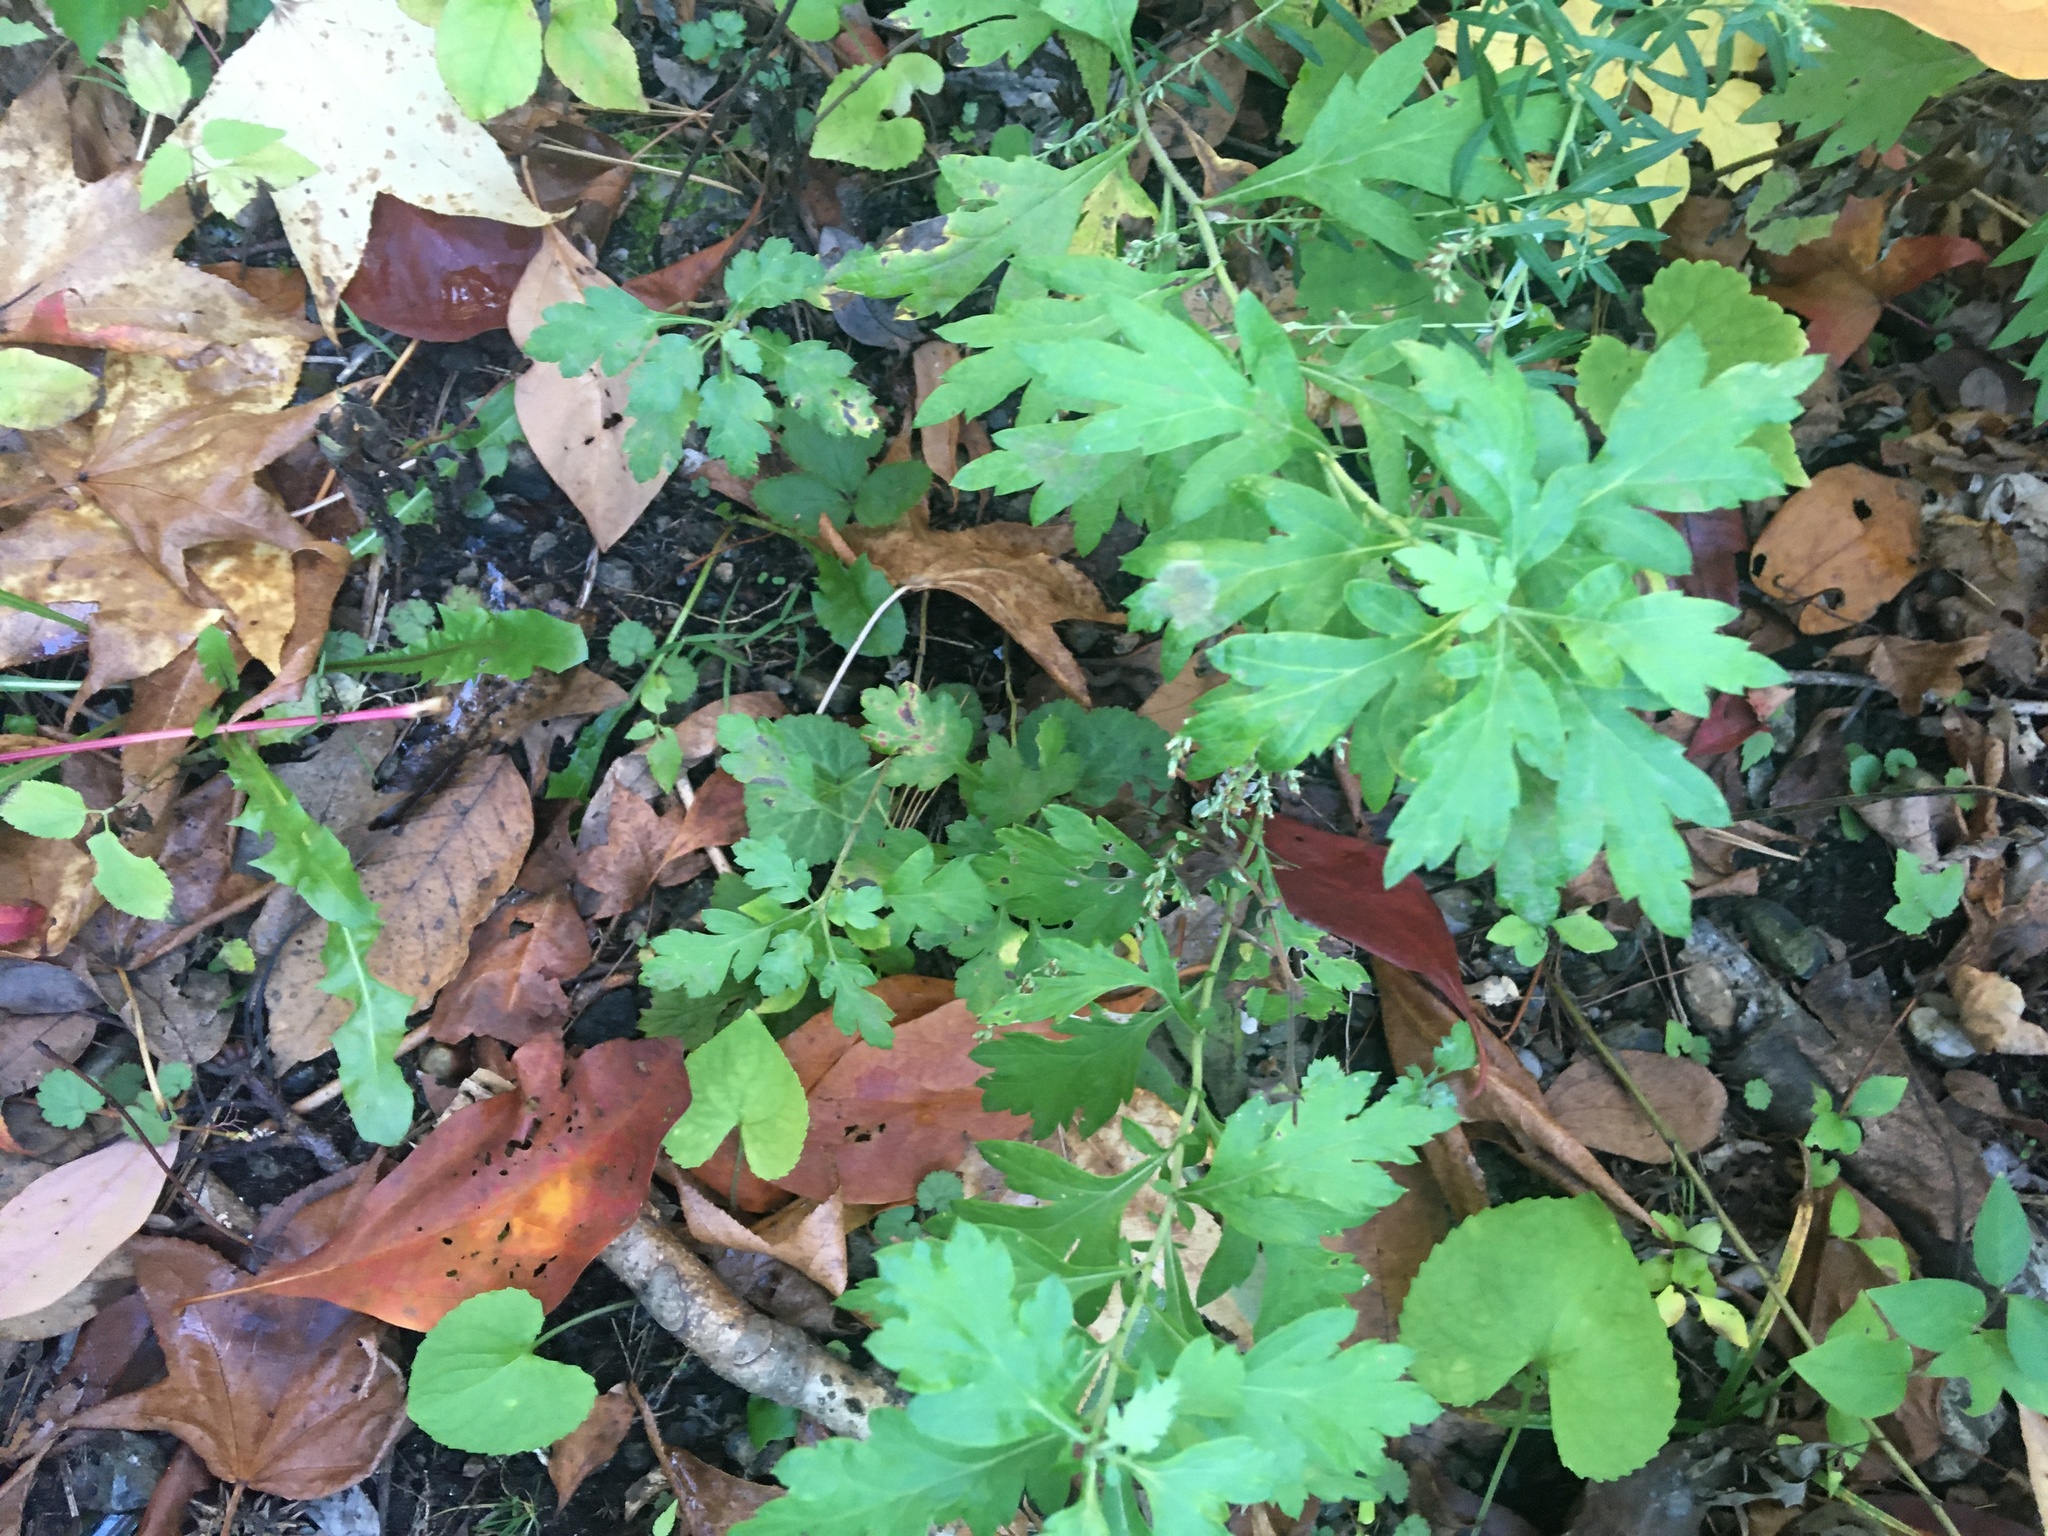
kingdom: Plantae
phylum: Tracheophyta
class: Magnoliopsida
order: Asterales
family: Asteraceae
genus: Artemisia
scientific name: Artemisia vulgaris
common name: Mugwort
